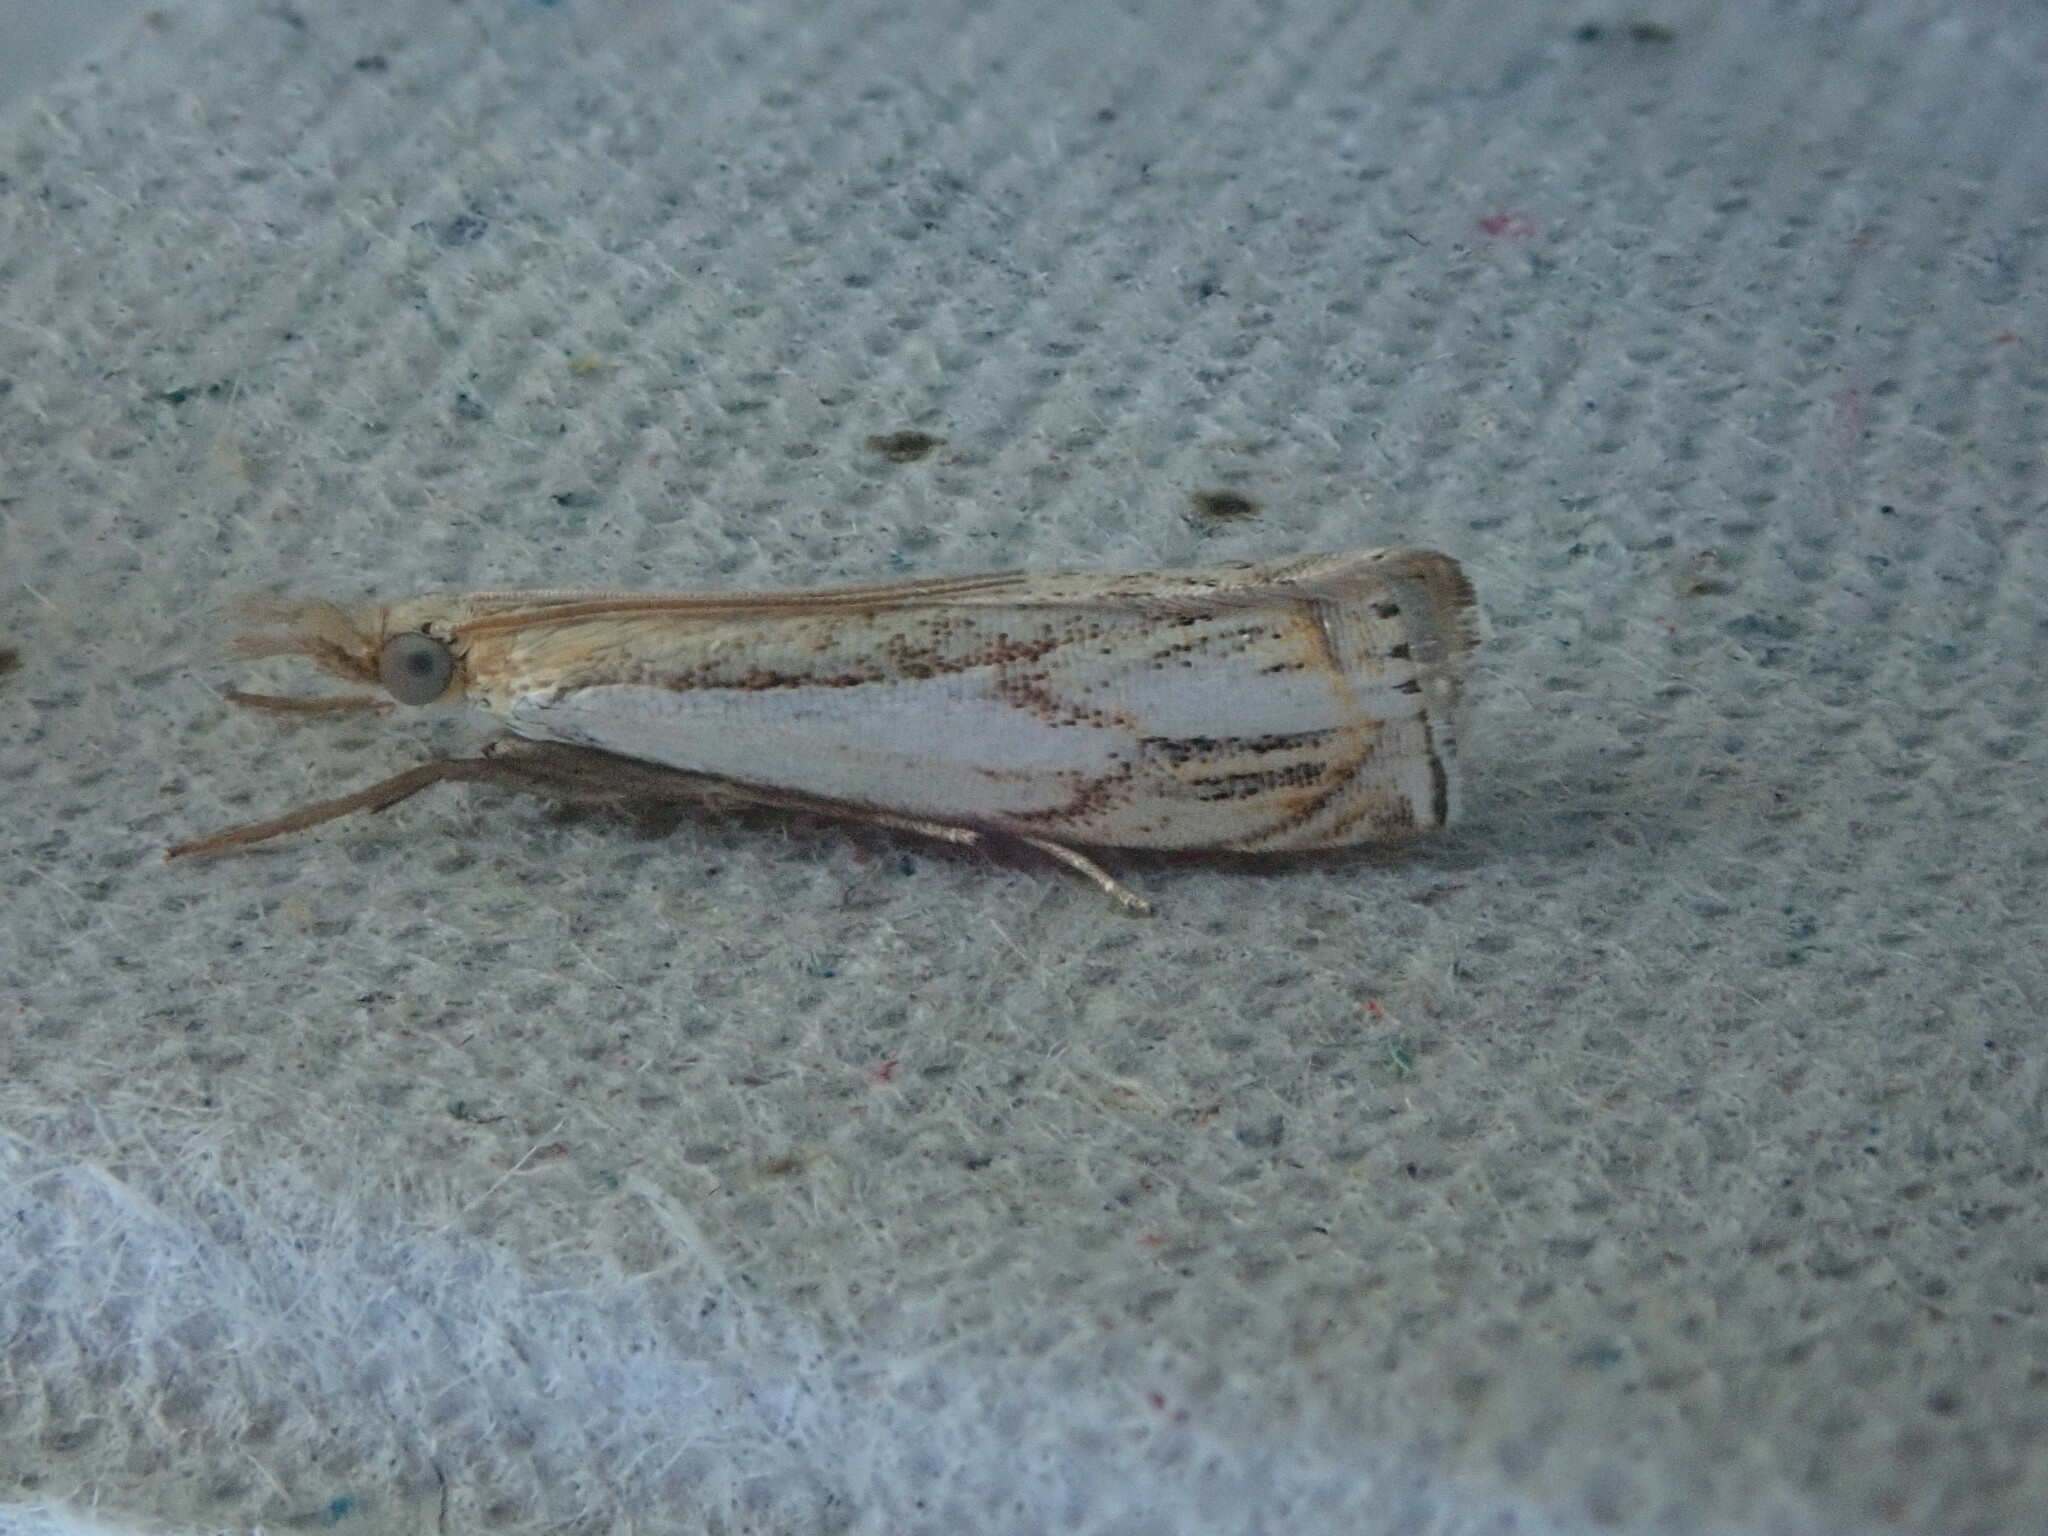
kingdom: Animalia
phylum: Arthropoda
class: Insecta
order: Lepidoptera
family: Crambidae
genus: Crambus
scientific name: Crambus agitatellus
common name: Double-banded grass-veneer
